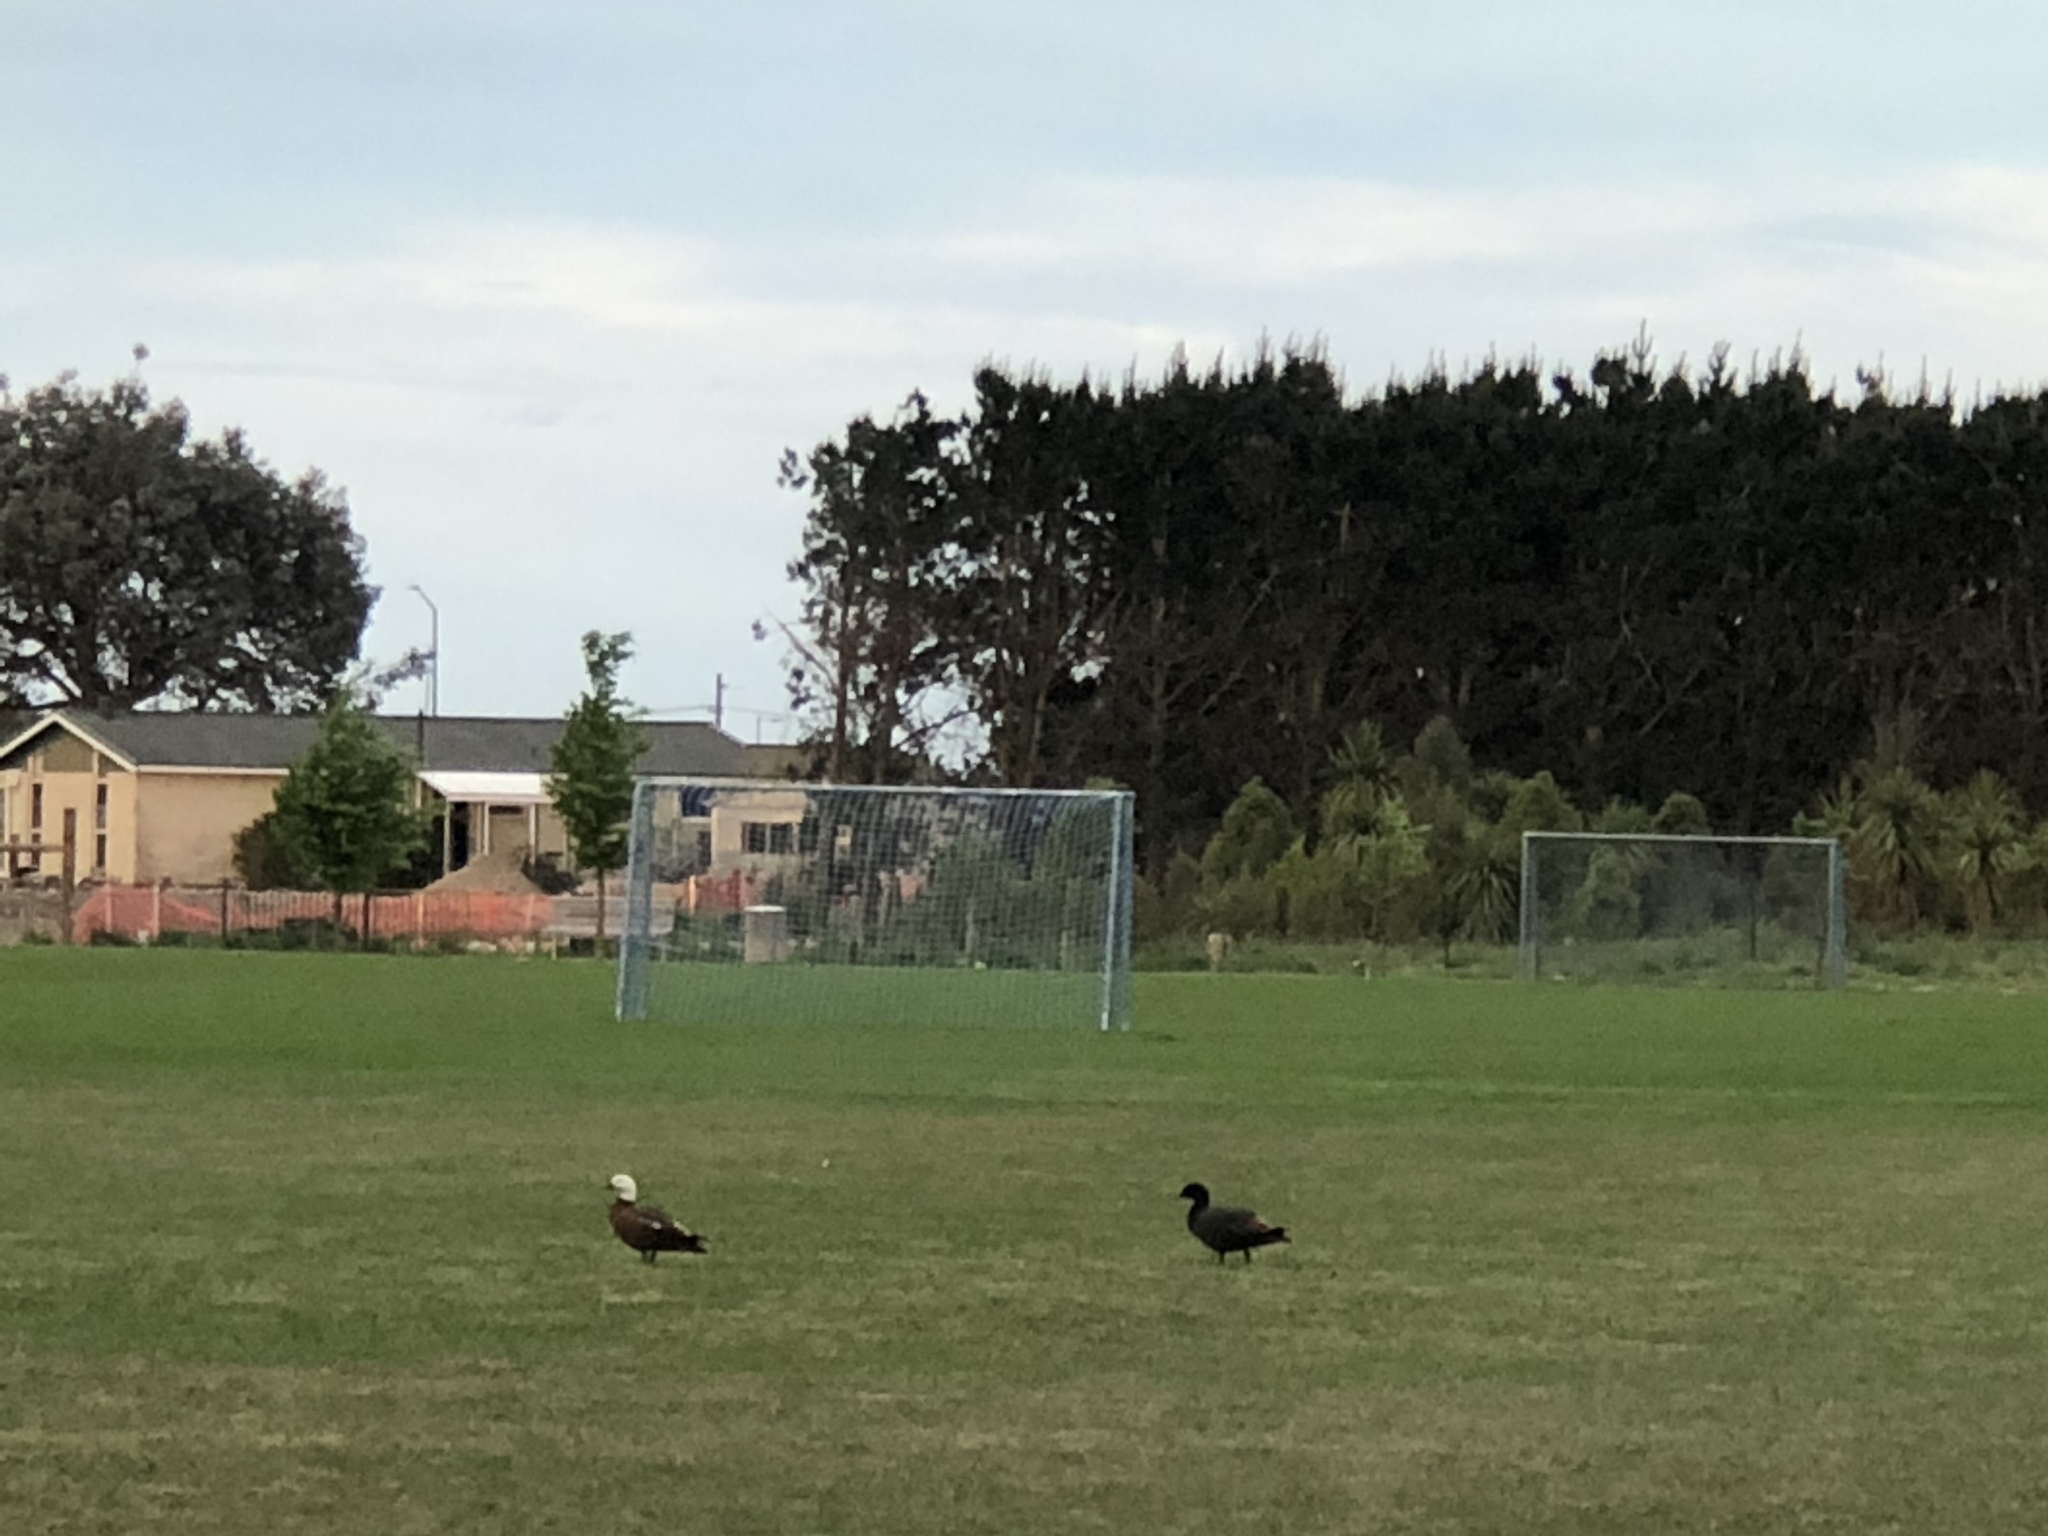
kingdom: Animalia
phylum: Chordata
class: Aves
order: Anseriformes
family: Anatidae
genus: Tadorna
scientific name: Tadorna variegata
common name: Paradise shelduck
